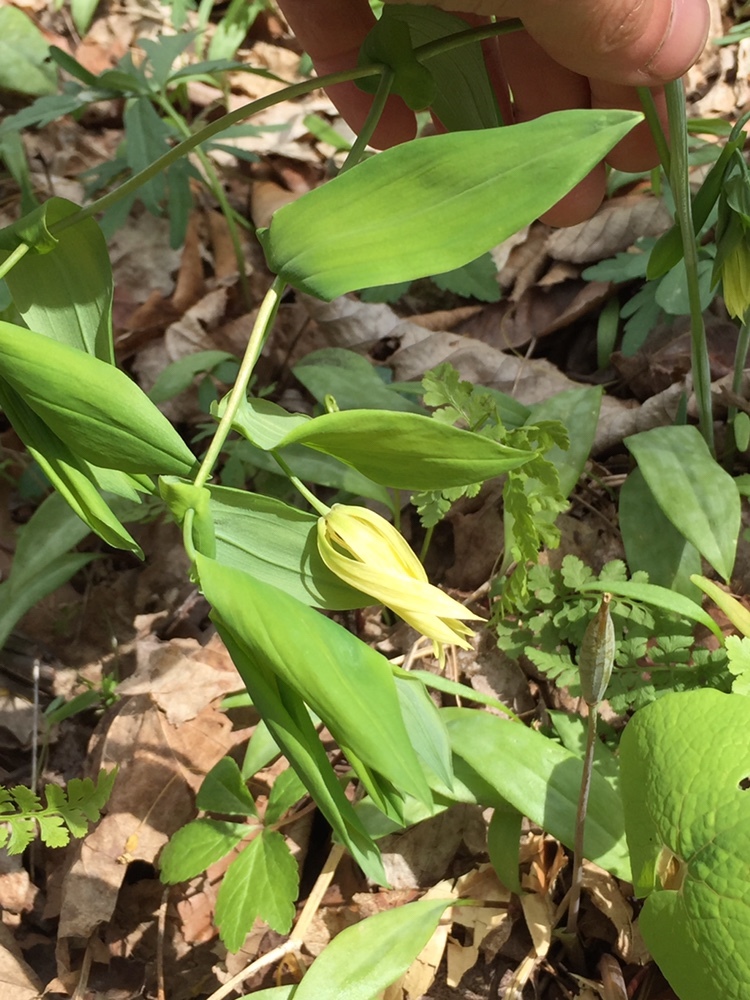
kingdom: Plantae
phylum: Tracheophyta
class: Liliopsida
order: Liliales
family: Colchicaceae
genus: Uvularia
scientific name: Uvularia grandiflora
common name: Bellwort
